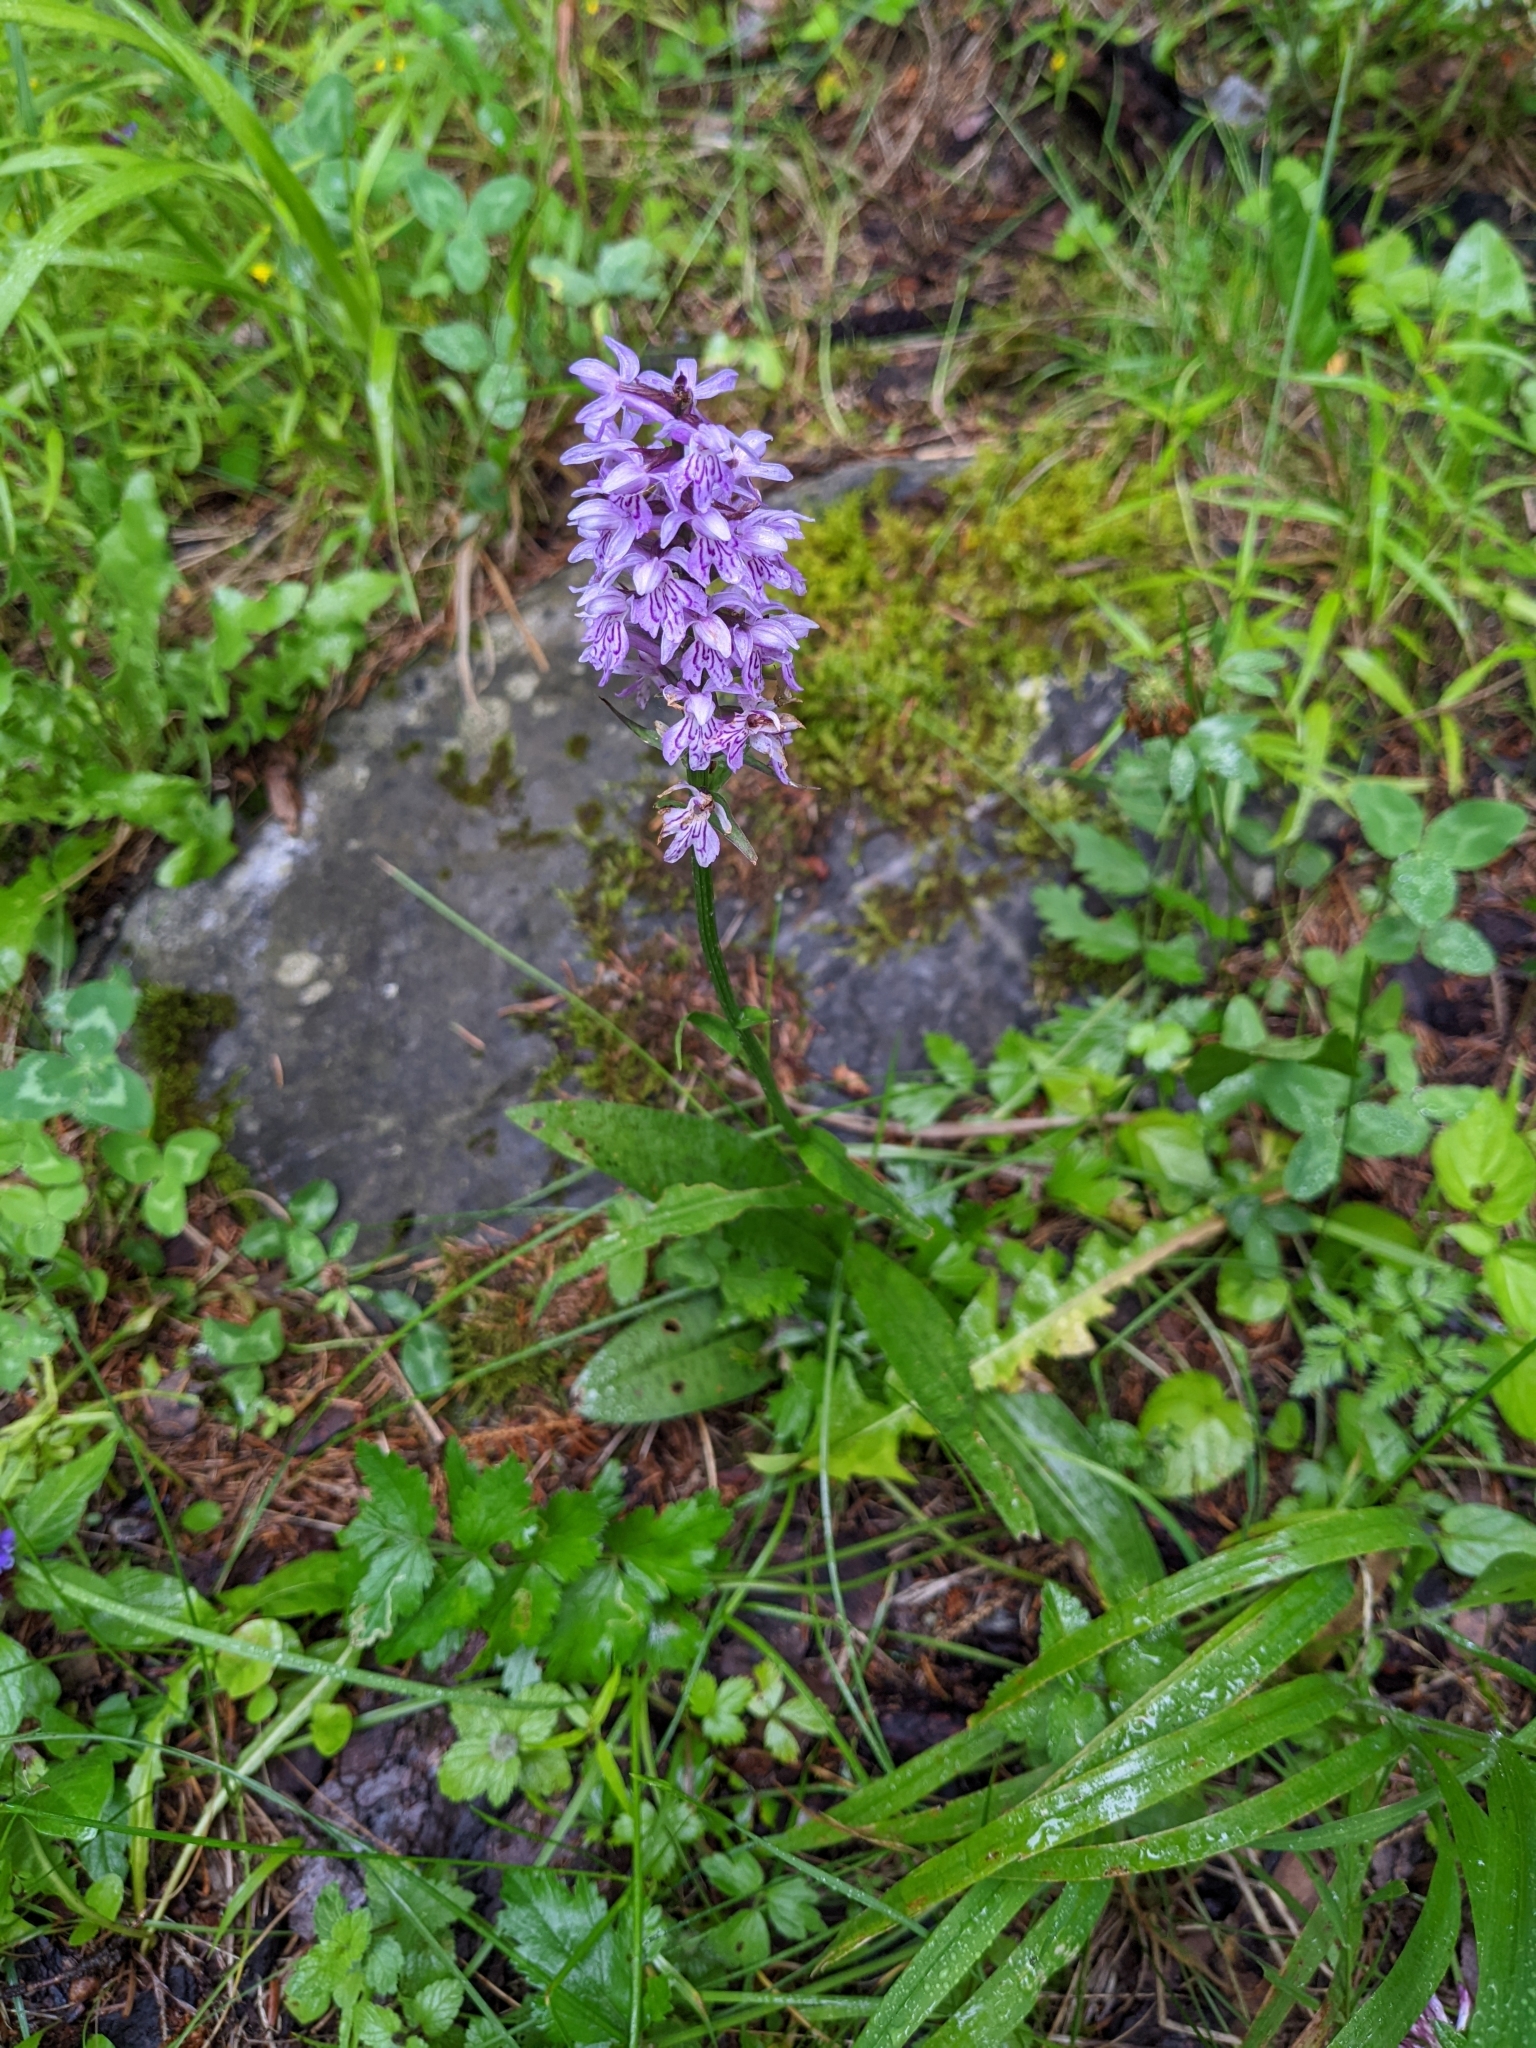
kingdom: Plantae
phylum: Tracheophyta
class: Liliopsida
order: Asparagales
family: Orchidaceae
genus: Dactylorhiza
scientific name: Dactylorhiza maculata
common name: Heath spotted-orchid
